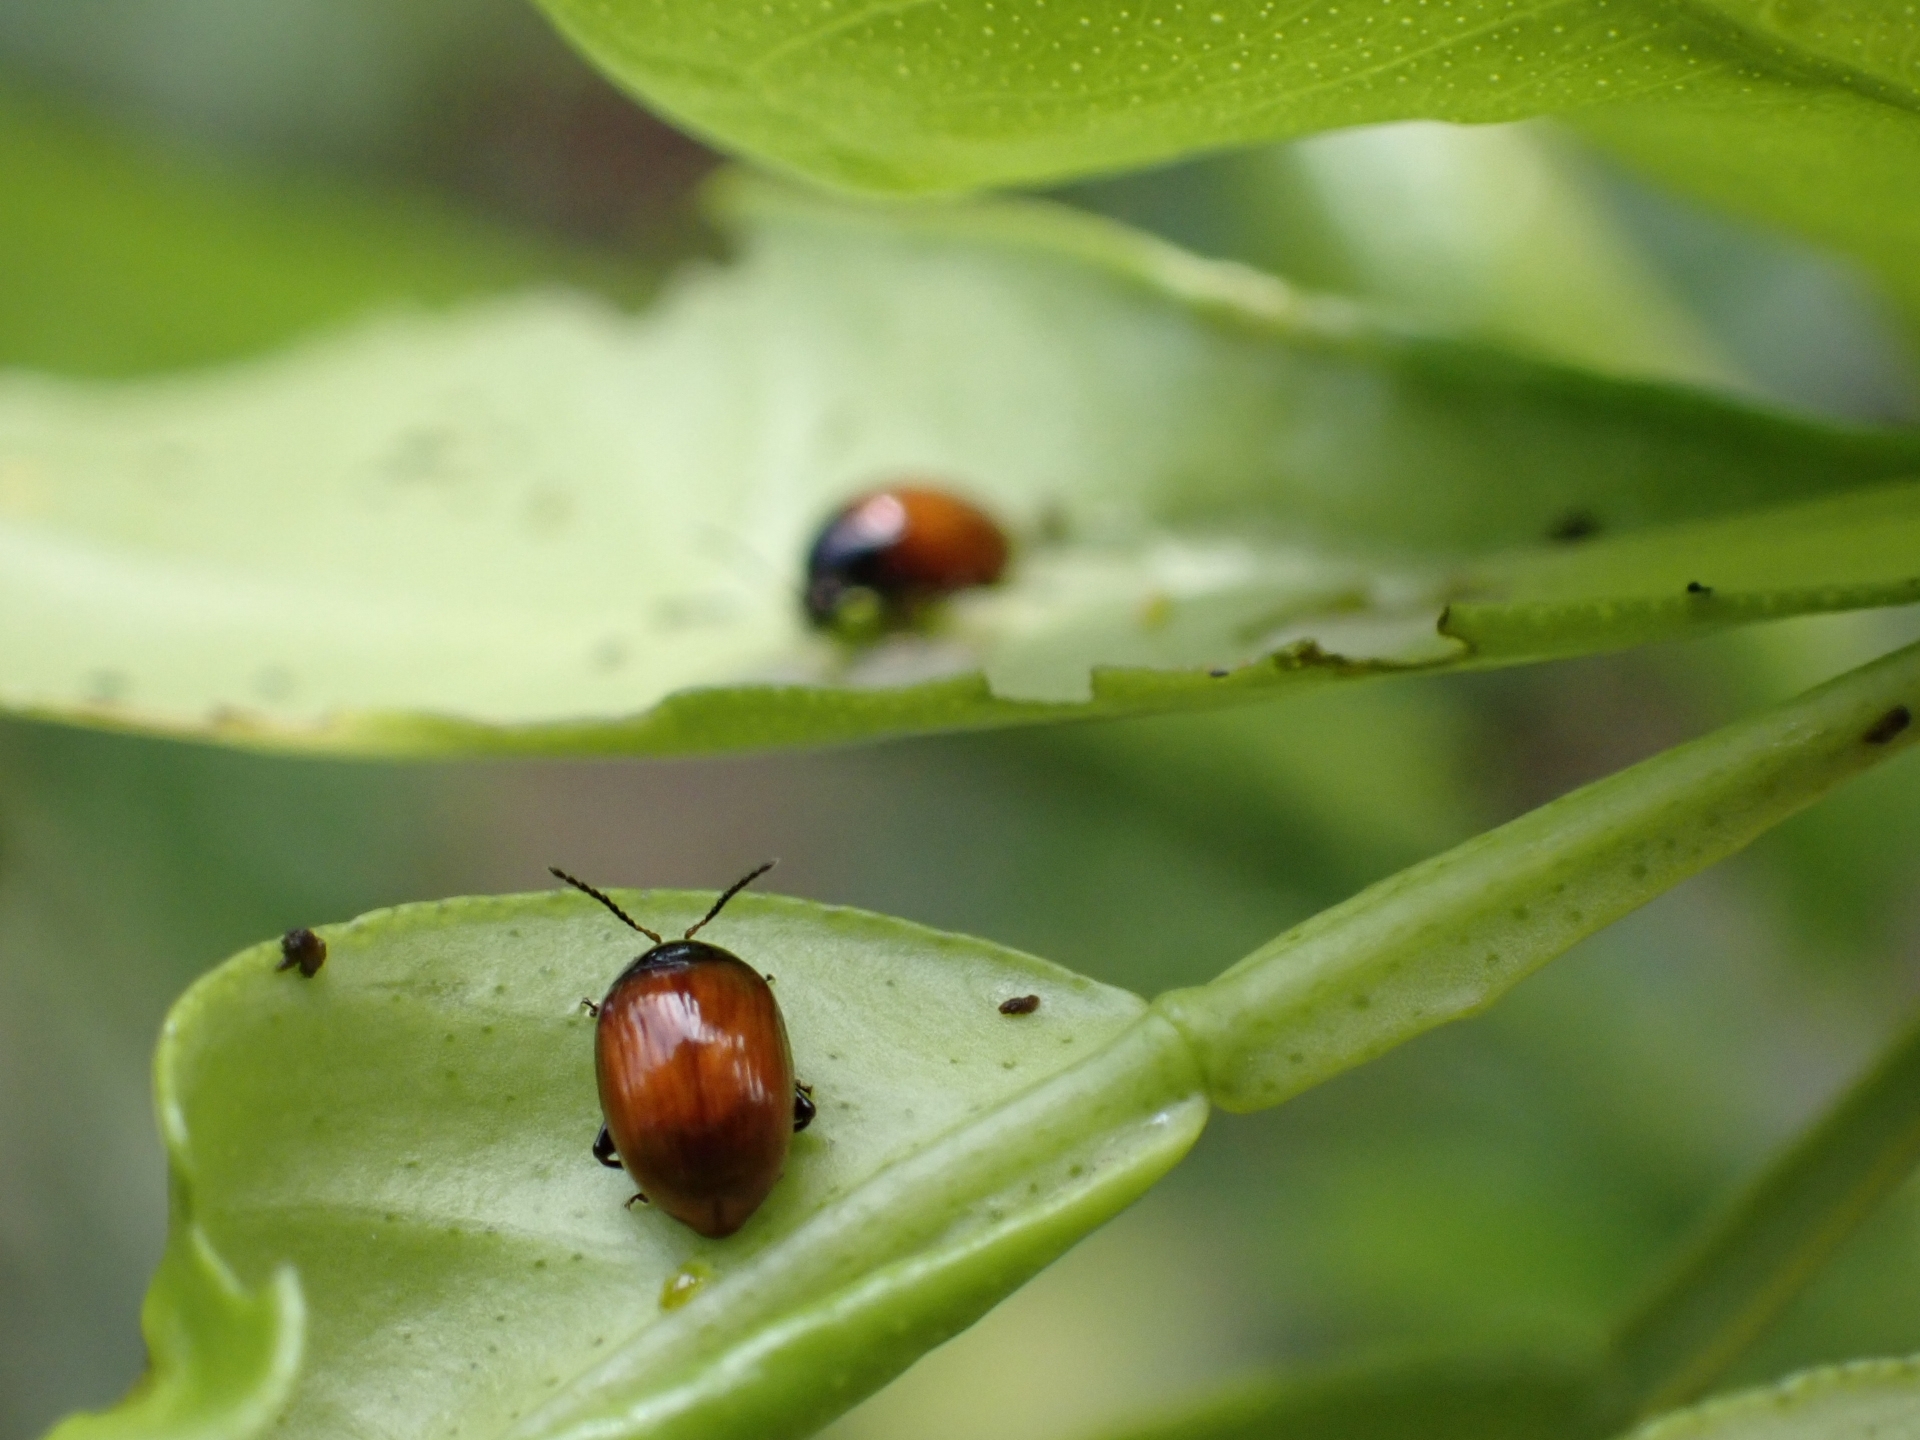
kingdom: Animalia
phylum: Arthropoda
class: Insecta
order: Coleoptera
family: Chrysomelidae
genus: Podagricomela
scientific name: Podagricomela nigricollis
